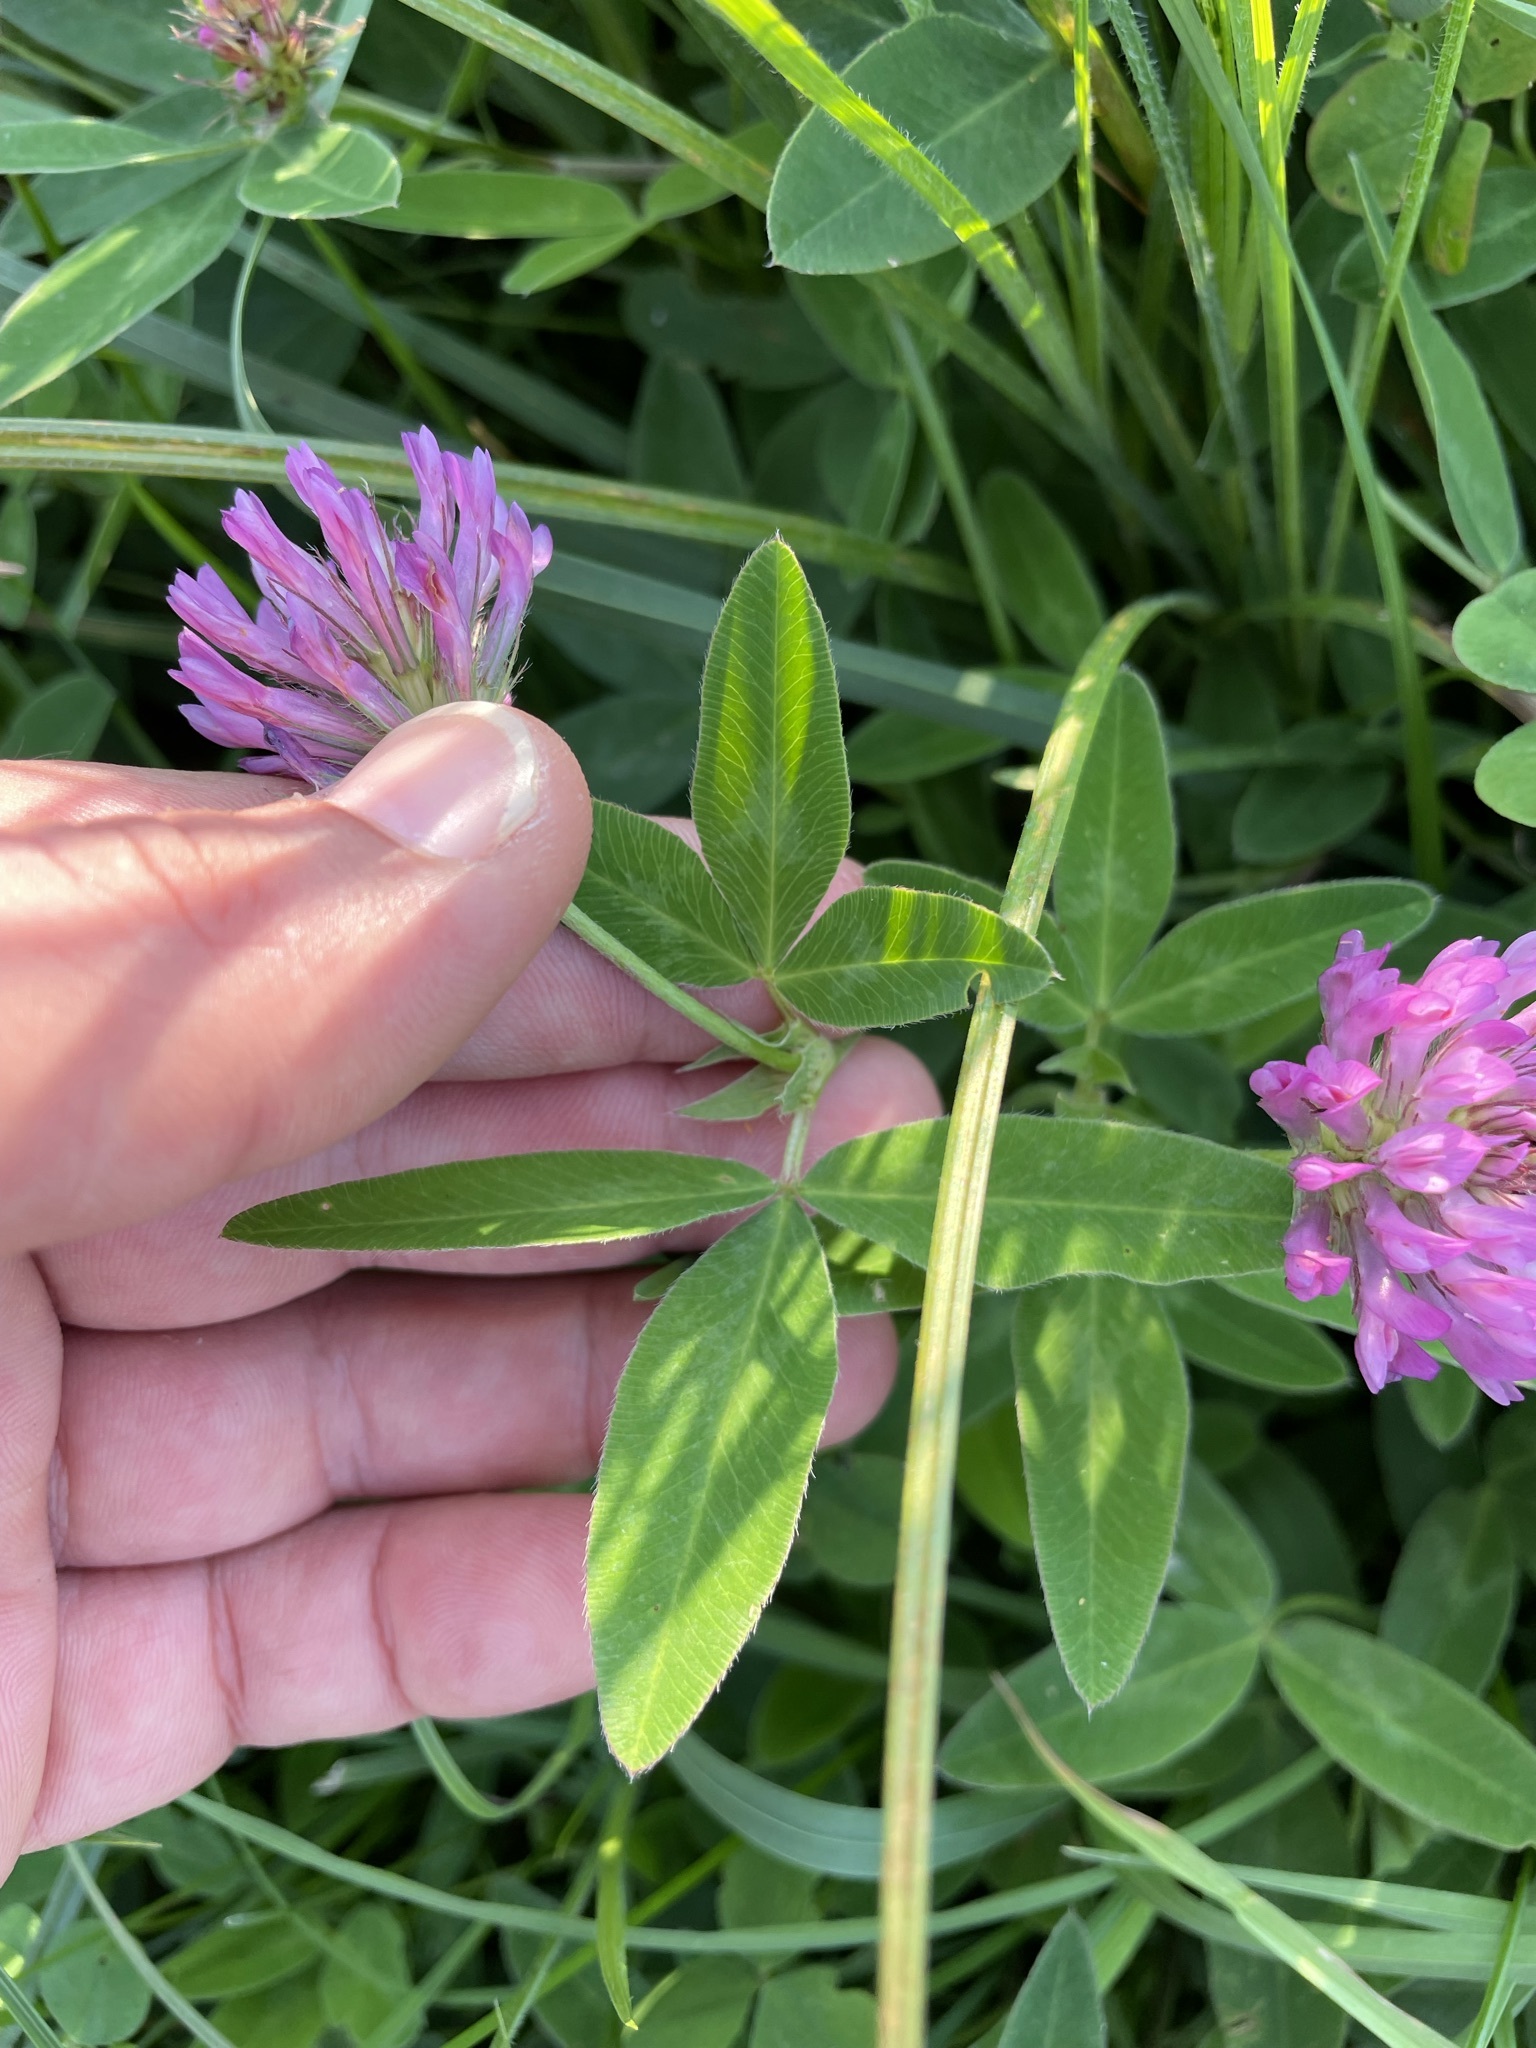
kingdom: Plantae
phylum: Tracheophyta
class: Magnoliopsida
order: Fabales
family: Fabaceae
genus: Trifolium
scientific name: Trifolium medium
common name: Zigzag clover
